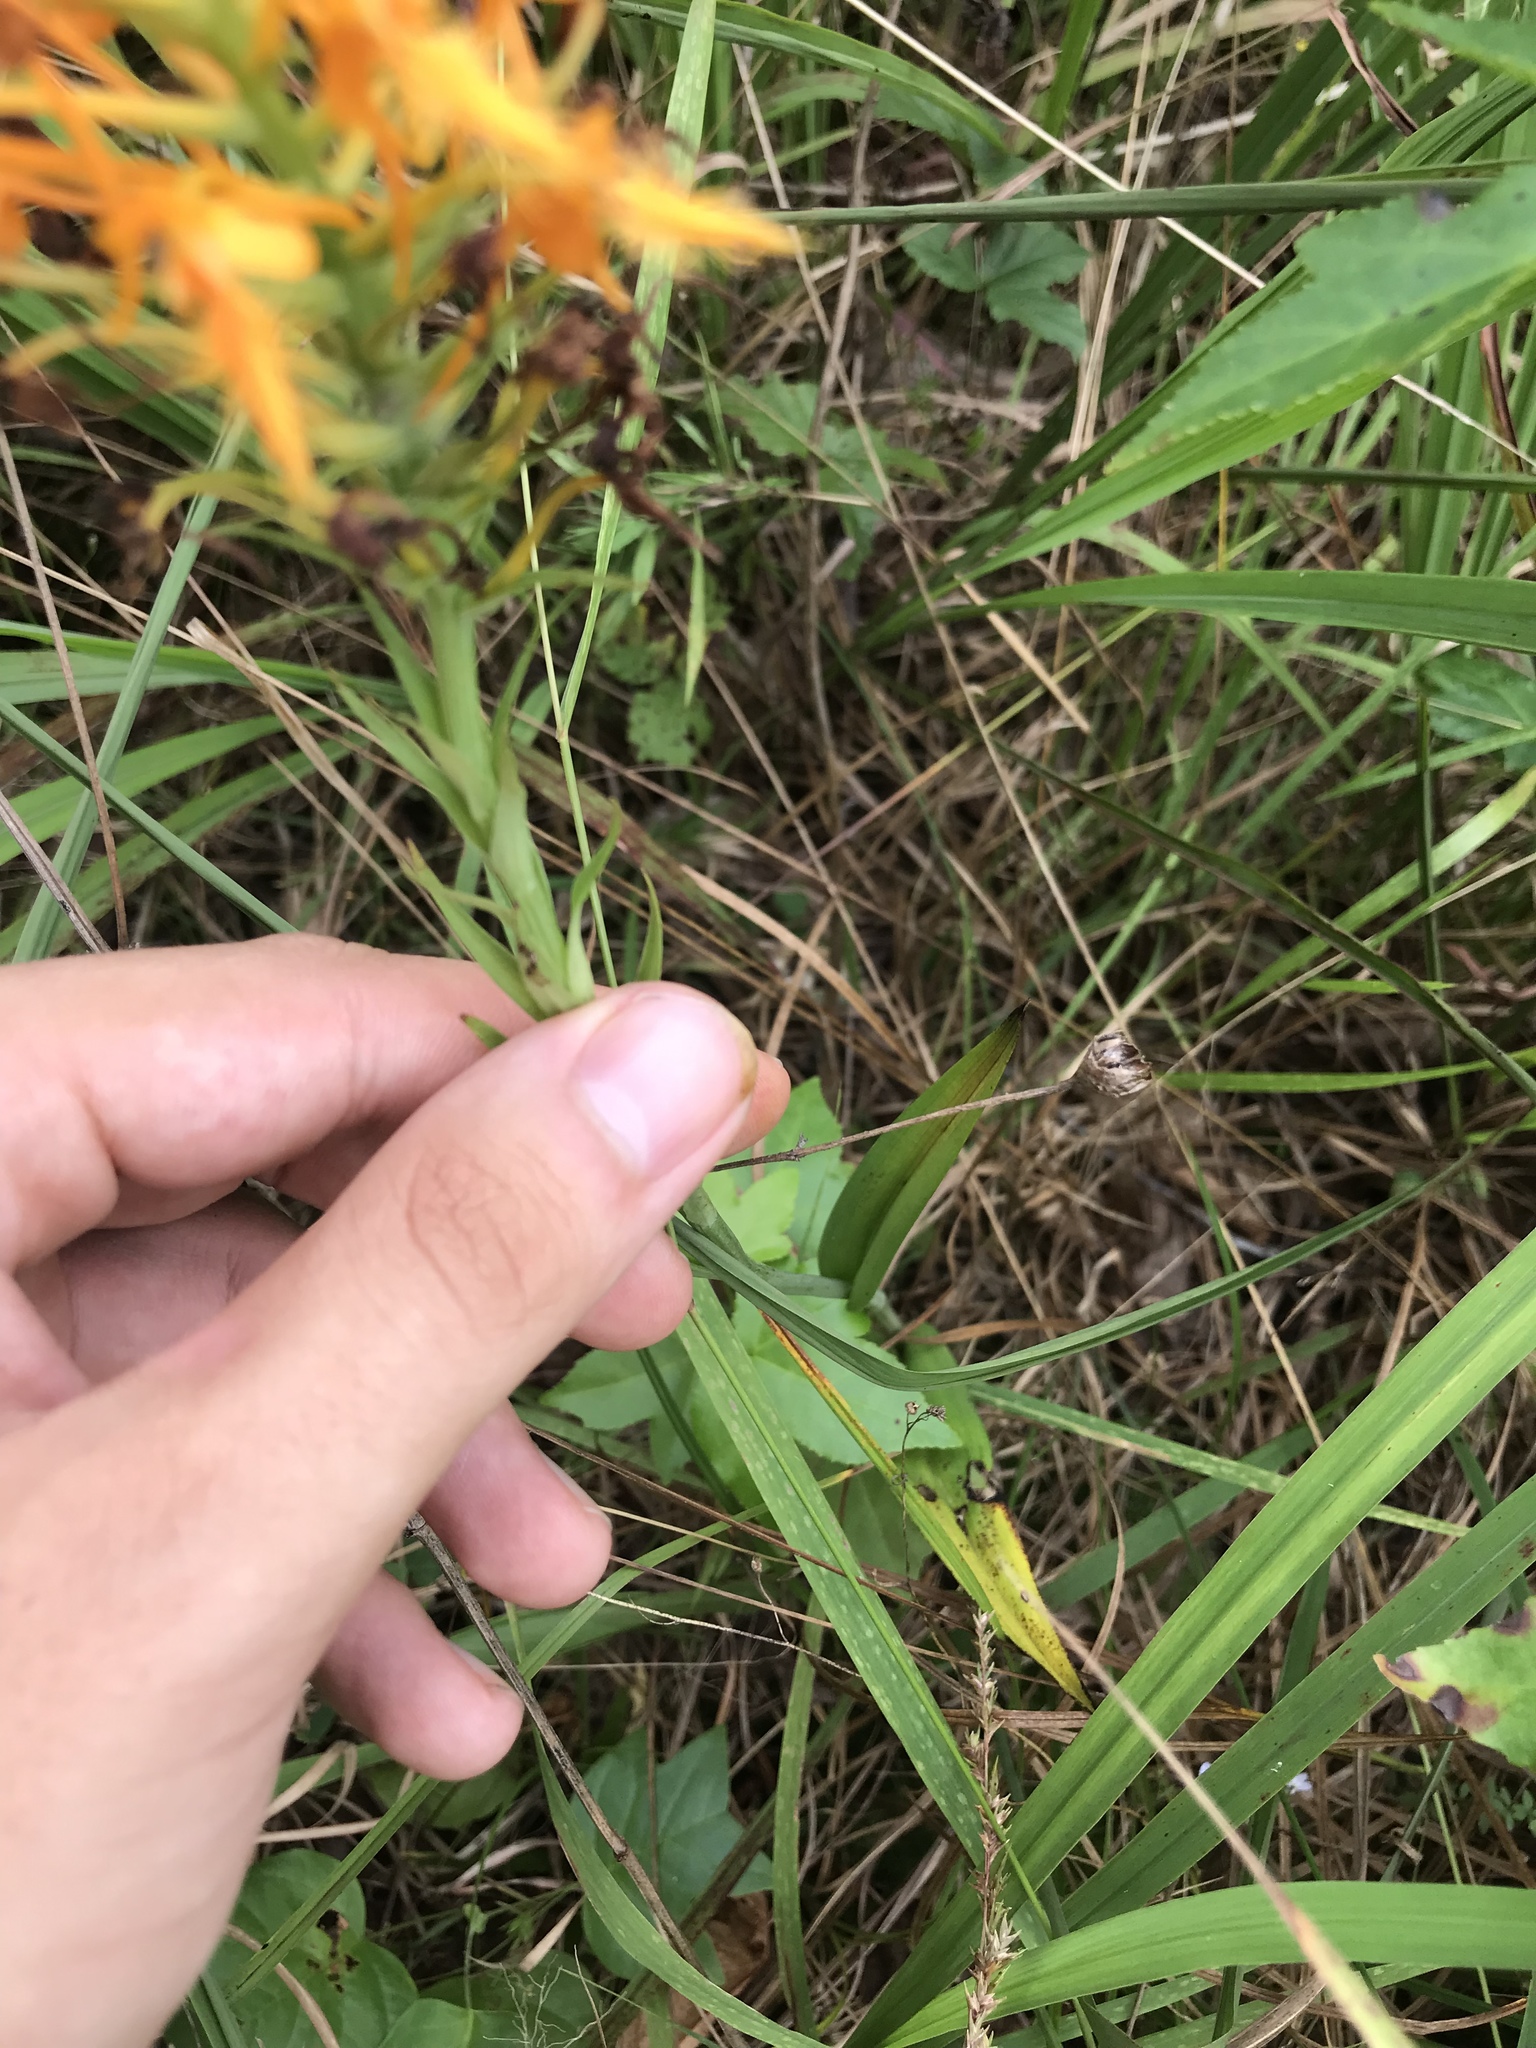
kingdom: Plantae
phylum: Tracheophyta
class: Liliopsida
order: Asparagales
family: Orchidaceae
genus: Platanthera
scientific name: Platanthera ciliaris
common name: Yellow fringed orchid
